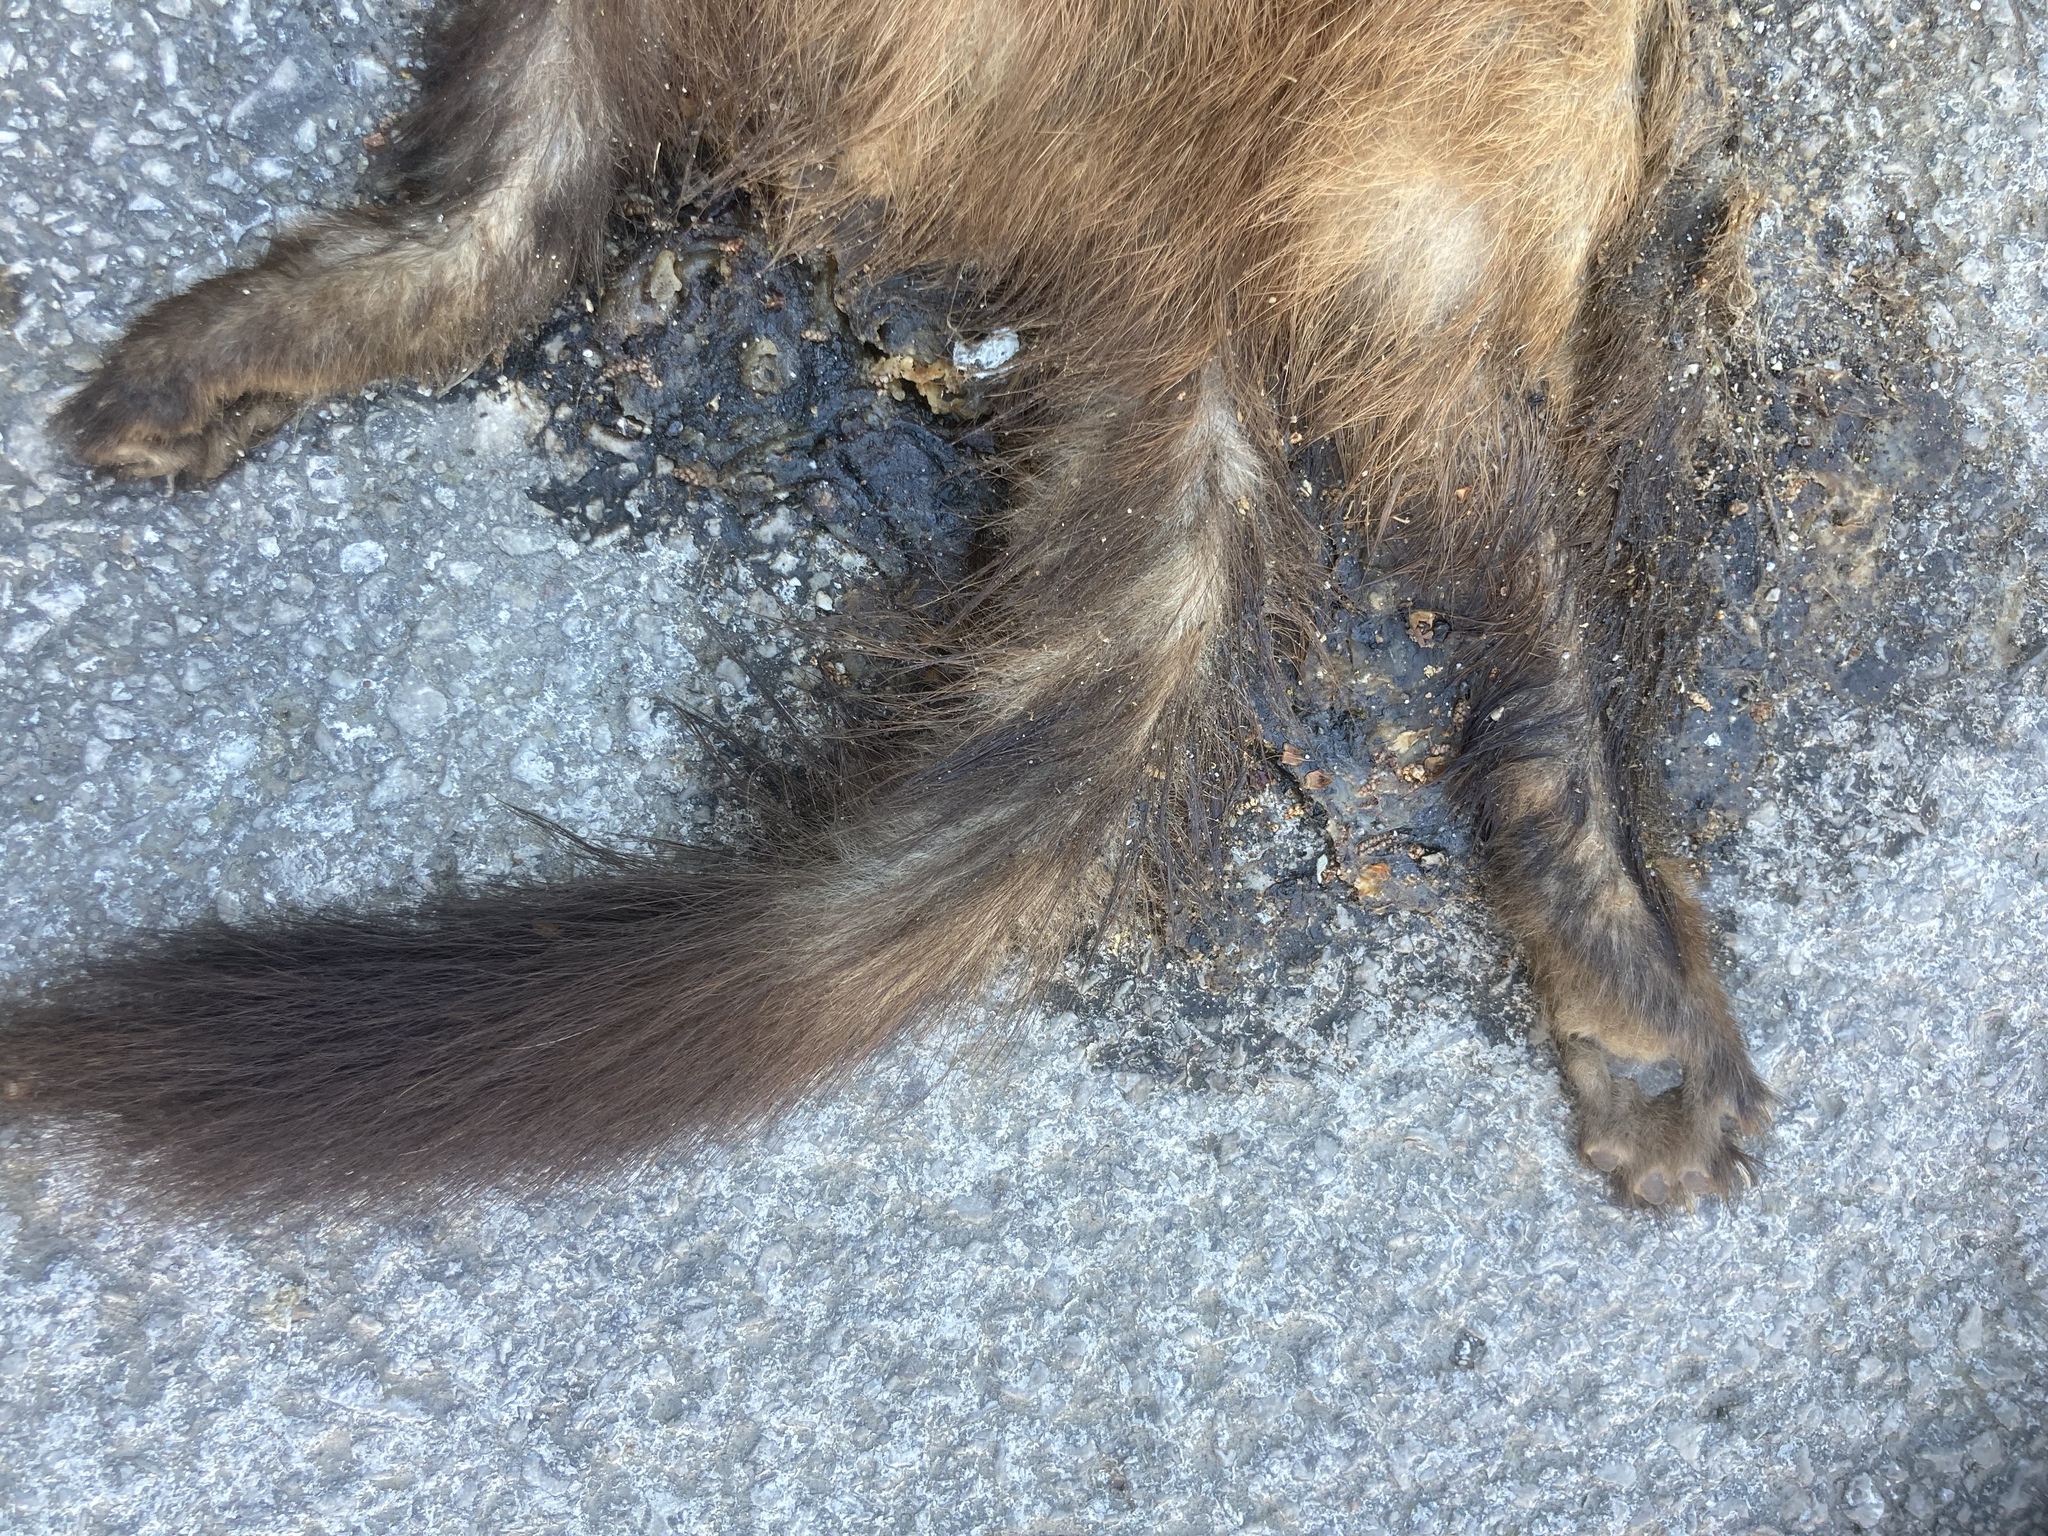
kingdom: Animalia
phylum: Chordata
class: Mammalia
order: Carnivora
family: Mustelidae
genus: Martes
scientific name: Martes foina
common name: Beech marten
